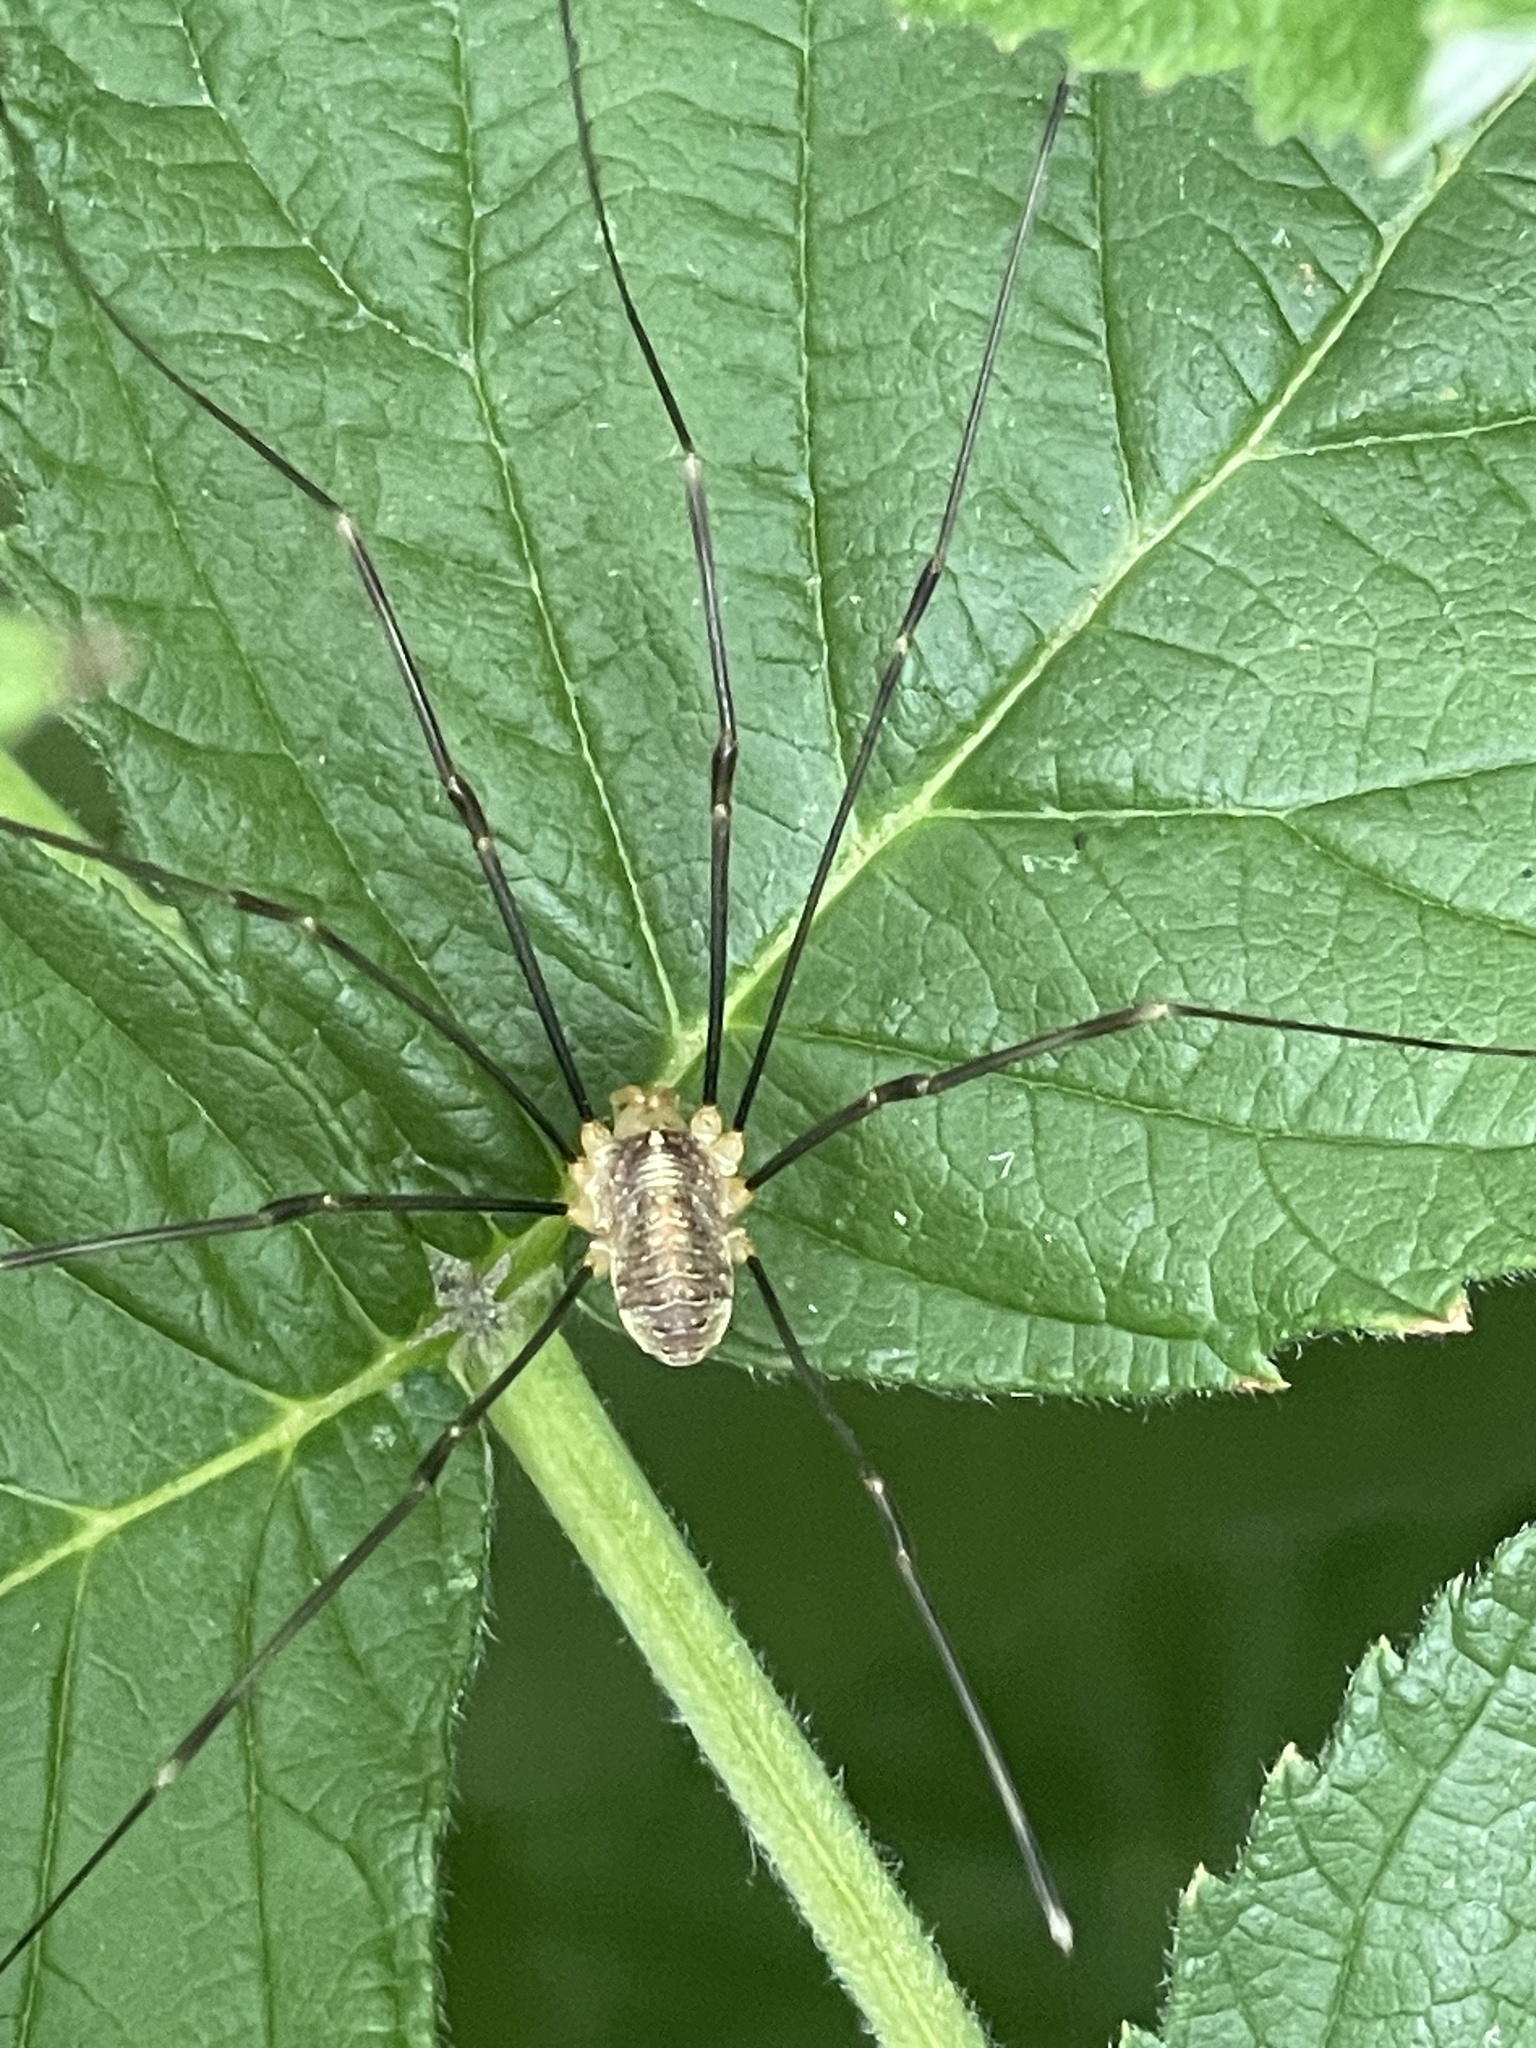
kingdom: Animalia
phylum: Arthropoda
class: Arachnida
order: Opiliones
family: Phalangiidae
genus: Opilio
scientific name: Opilio canestrinii
